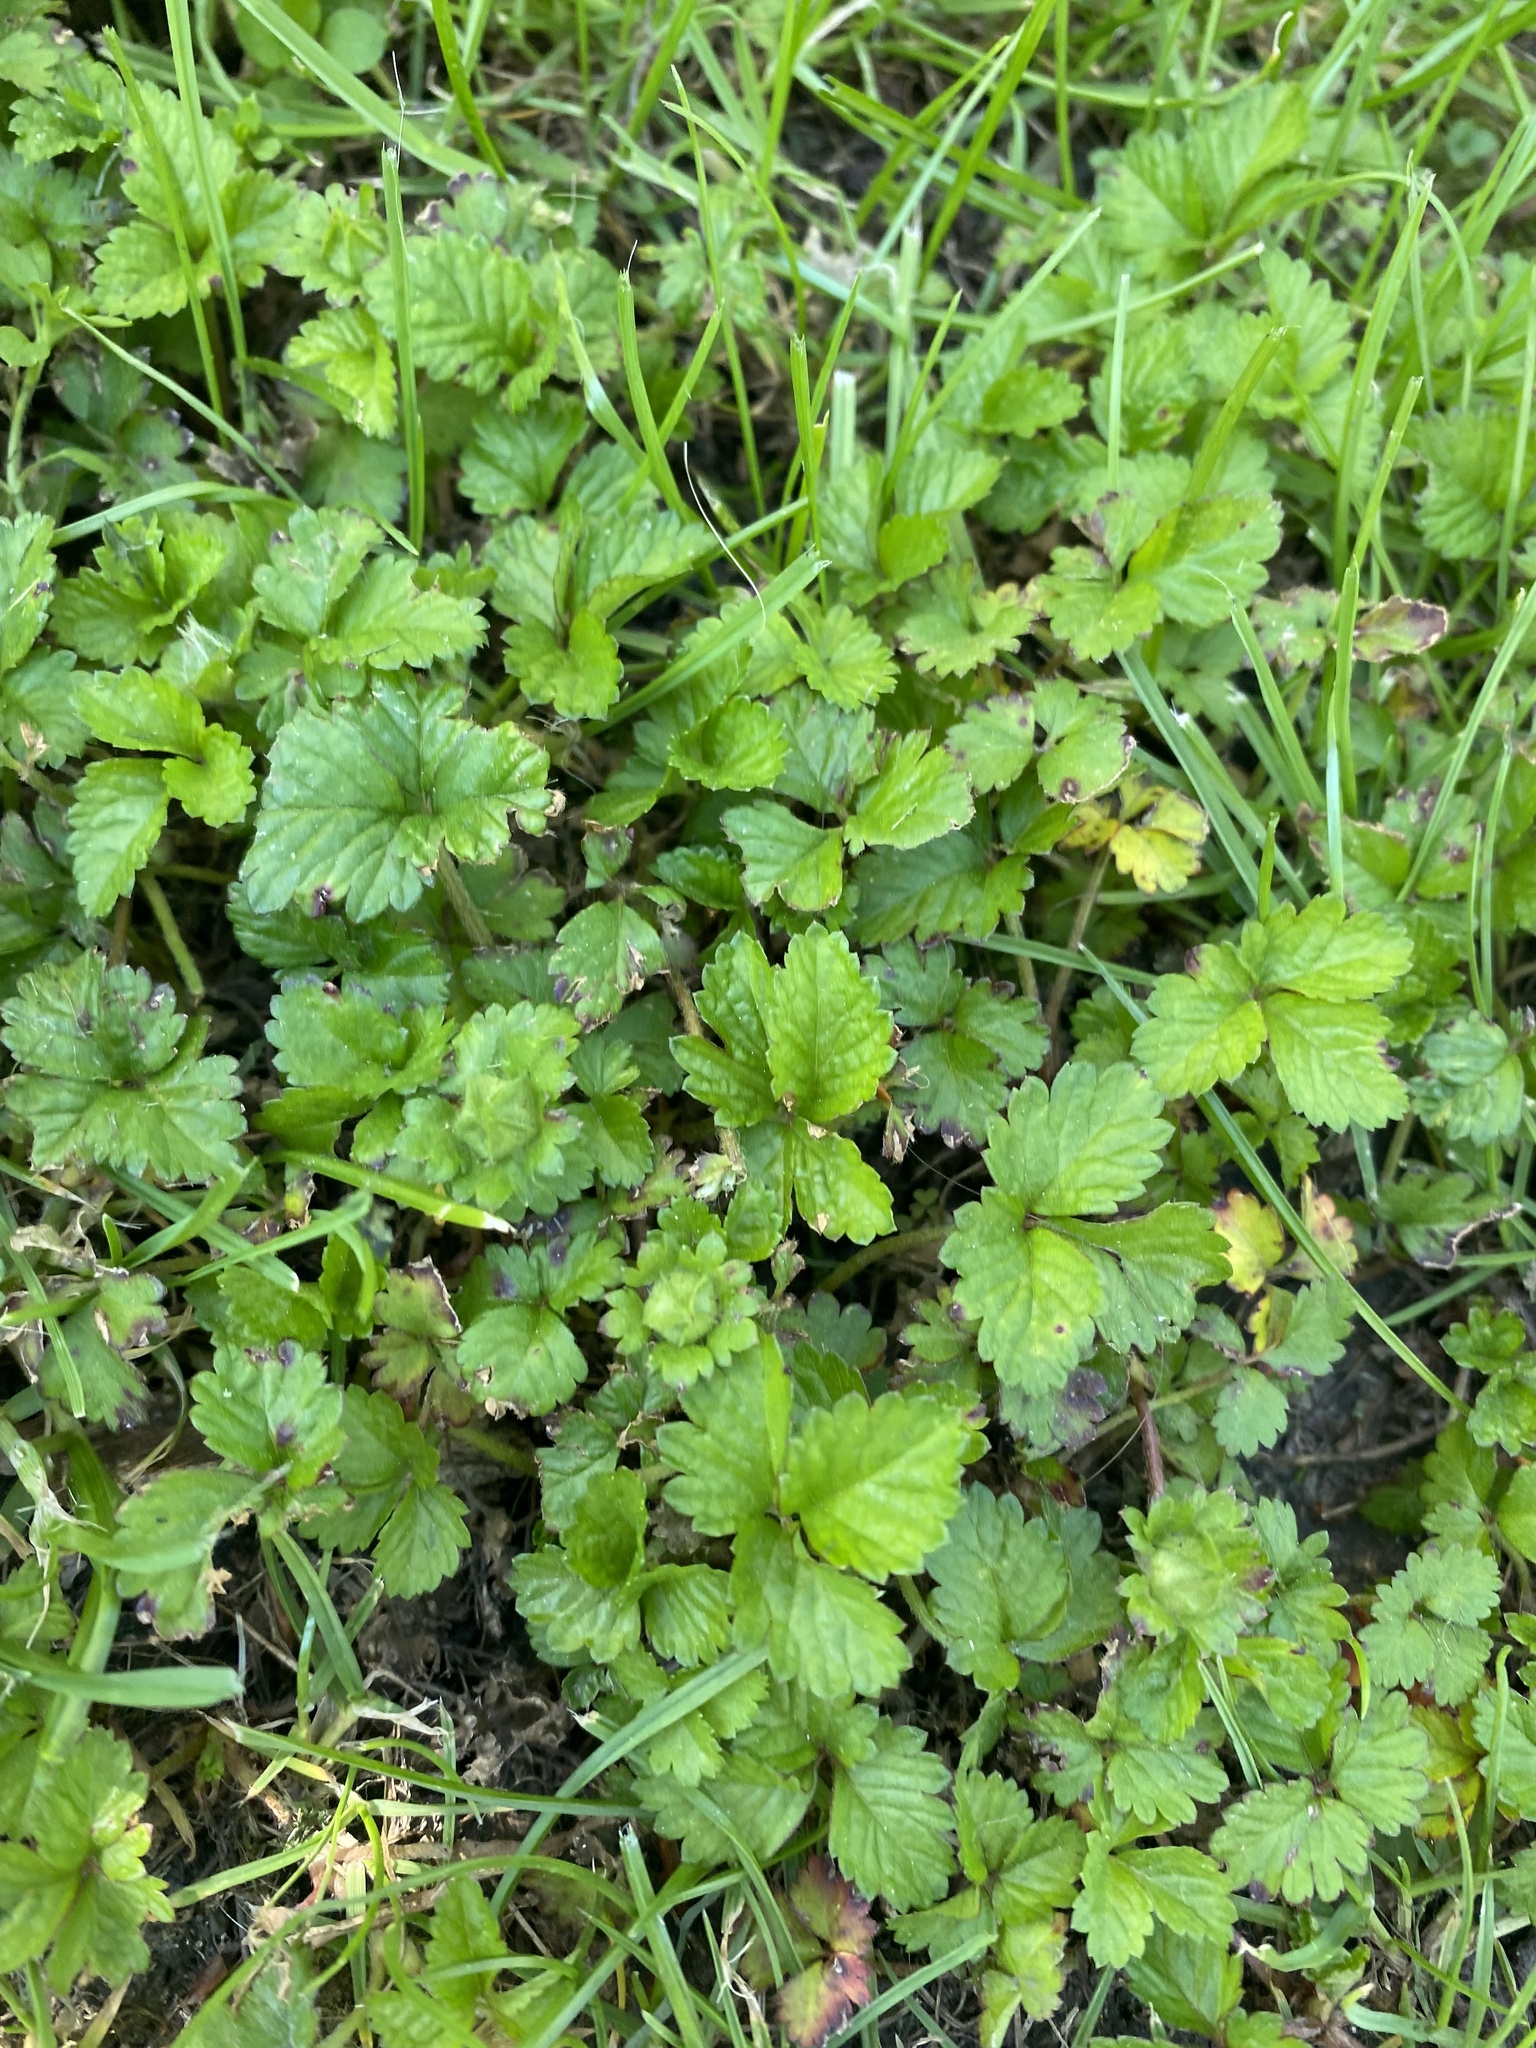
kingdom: Plantae
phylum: Tracheophyta
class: Magnoliopsida
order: Rosales
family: Rosaceae
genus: Potentilla
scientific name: Potentilla indica
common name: Yellow-flowered strawberry
